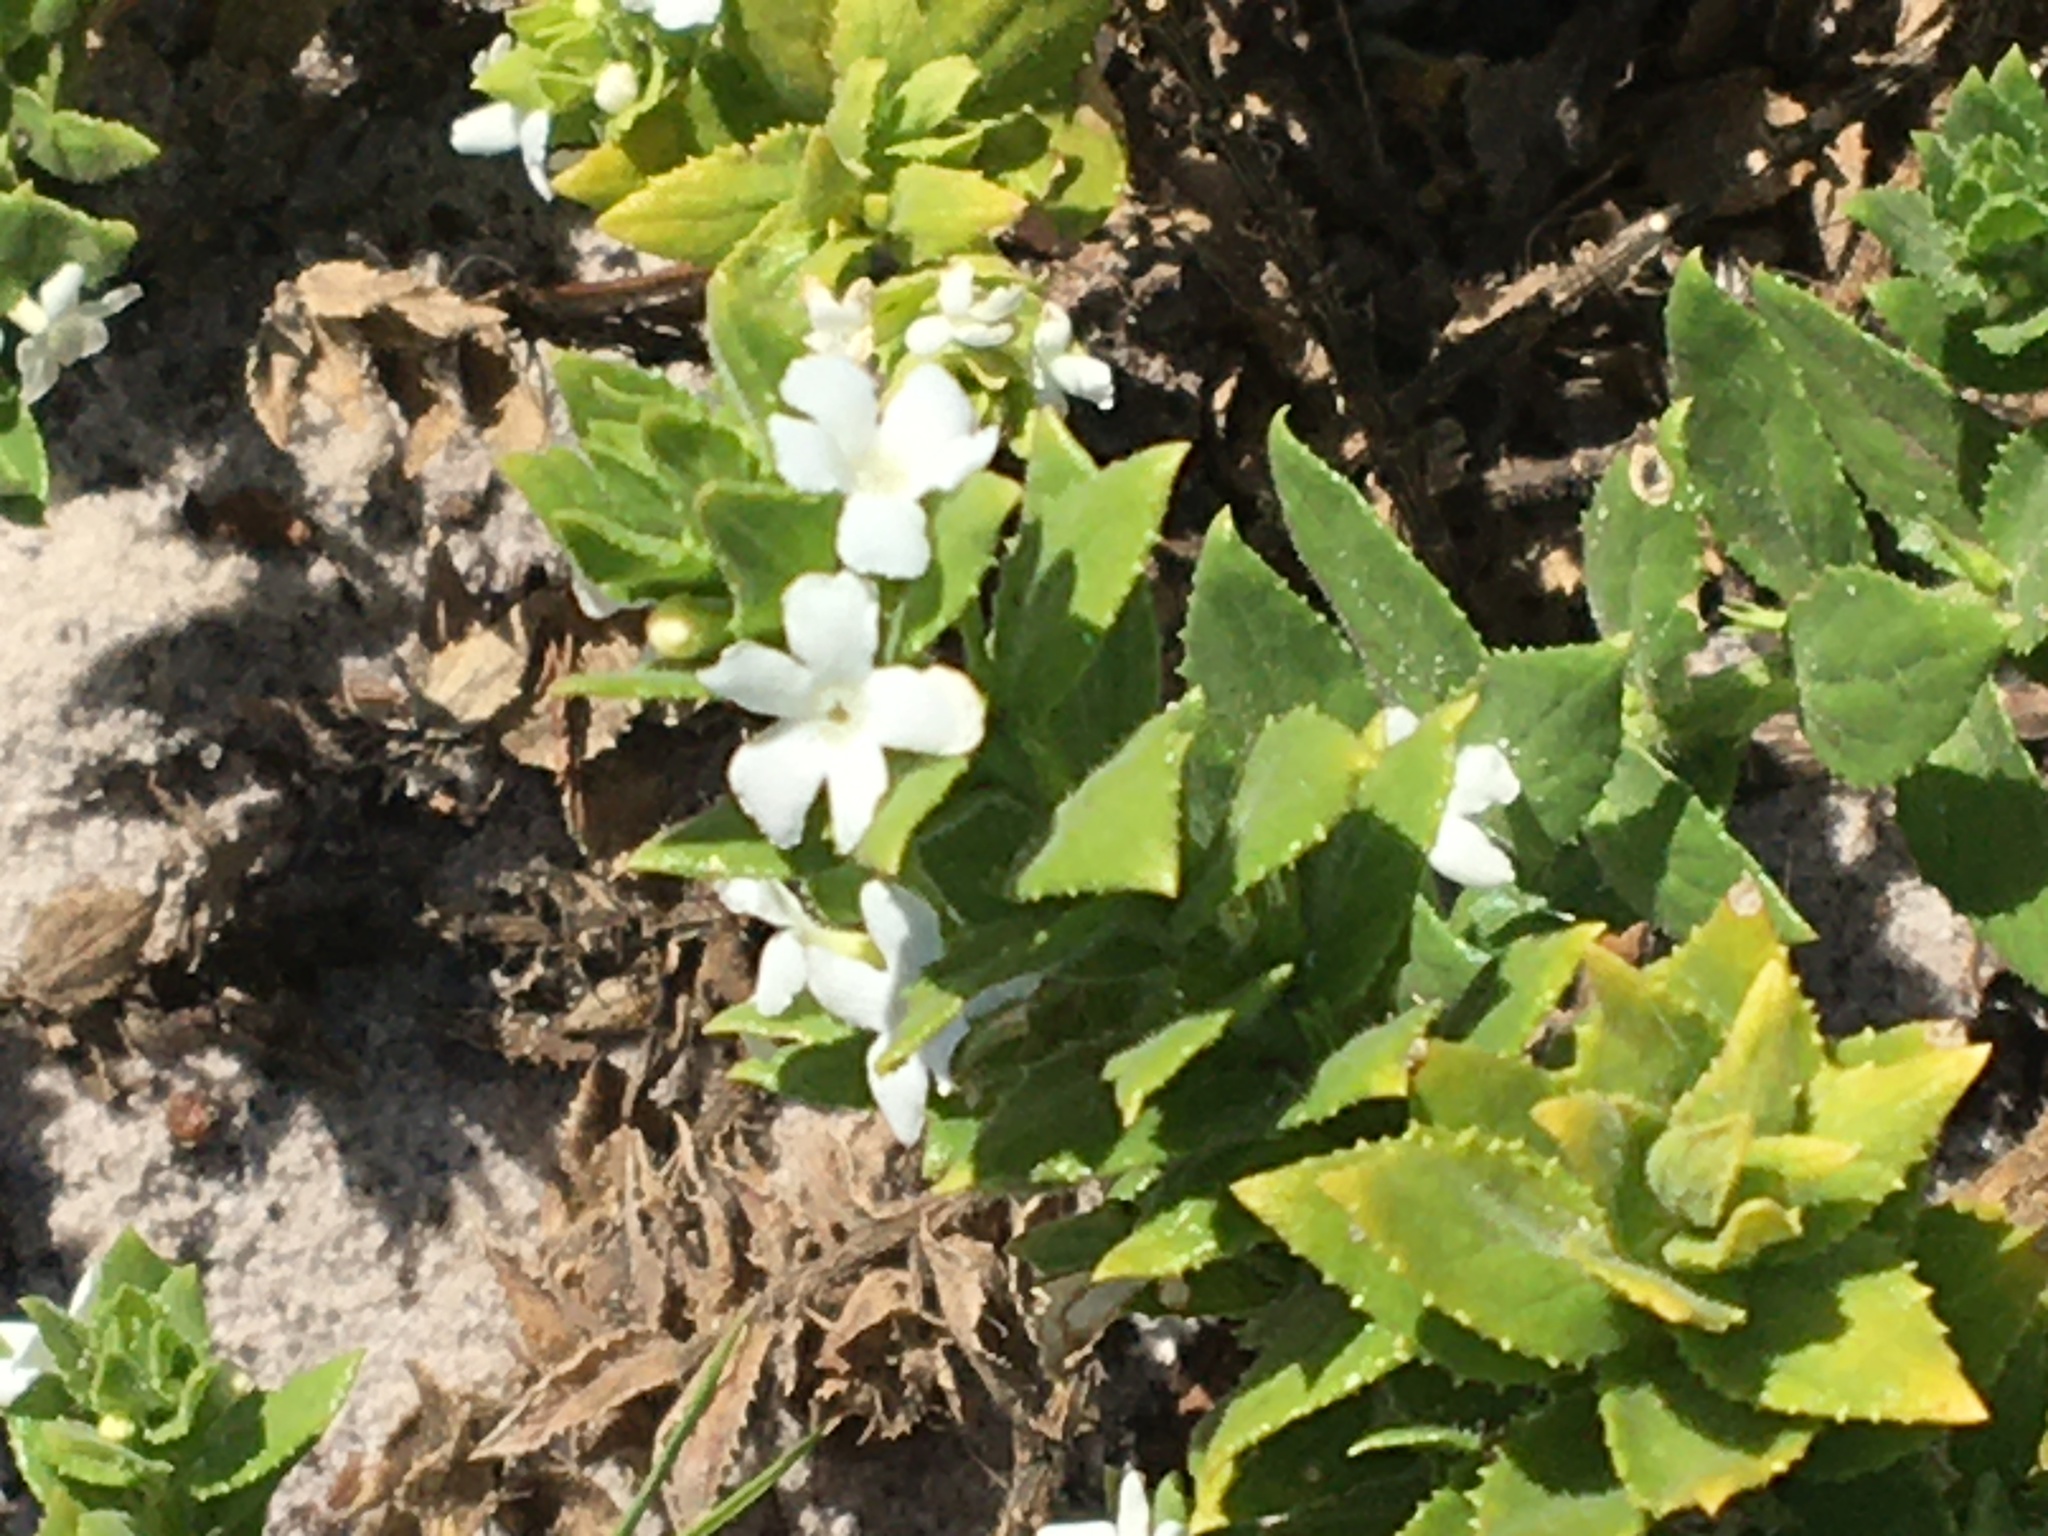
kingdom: Plantae
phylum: Tracheophyta
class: Magnoliopsida
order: Lamiales
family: Scrophulariaceae
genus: Oftia
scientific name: Oftia africana
